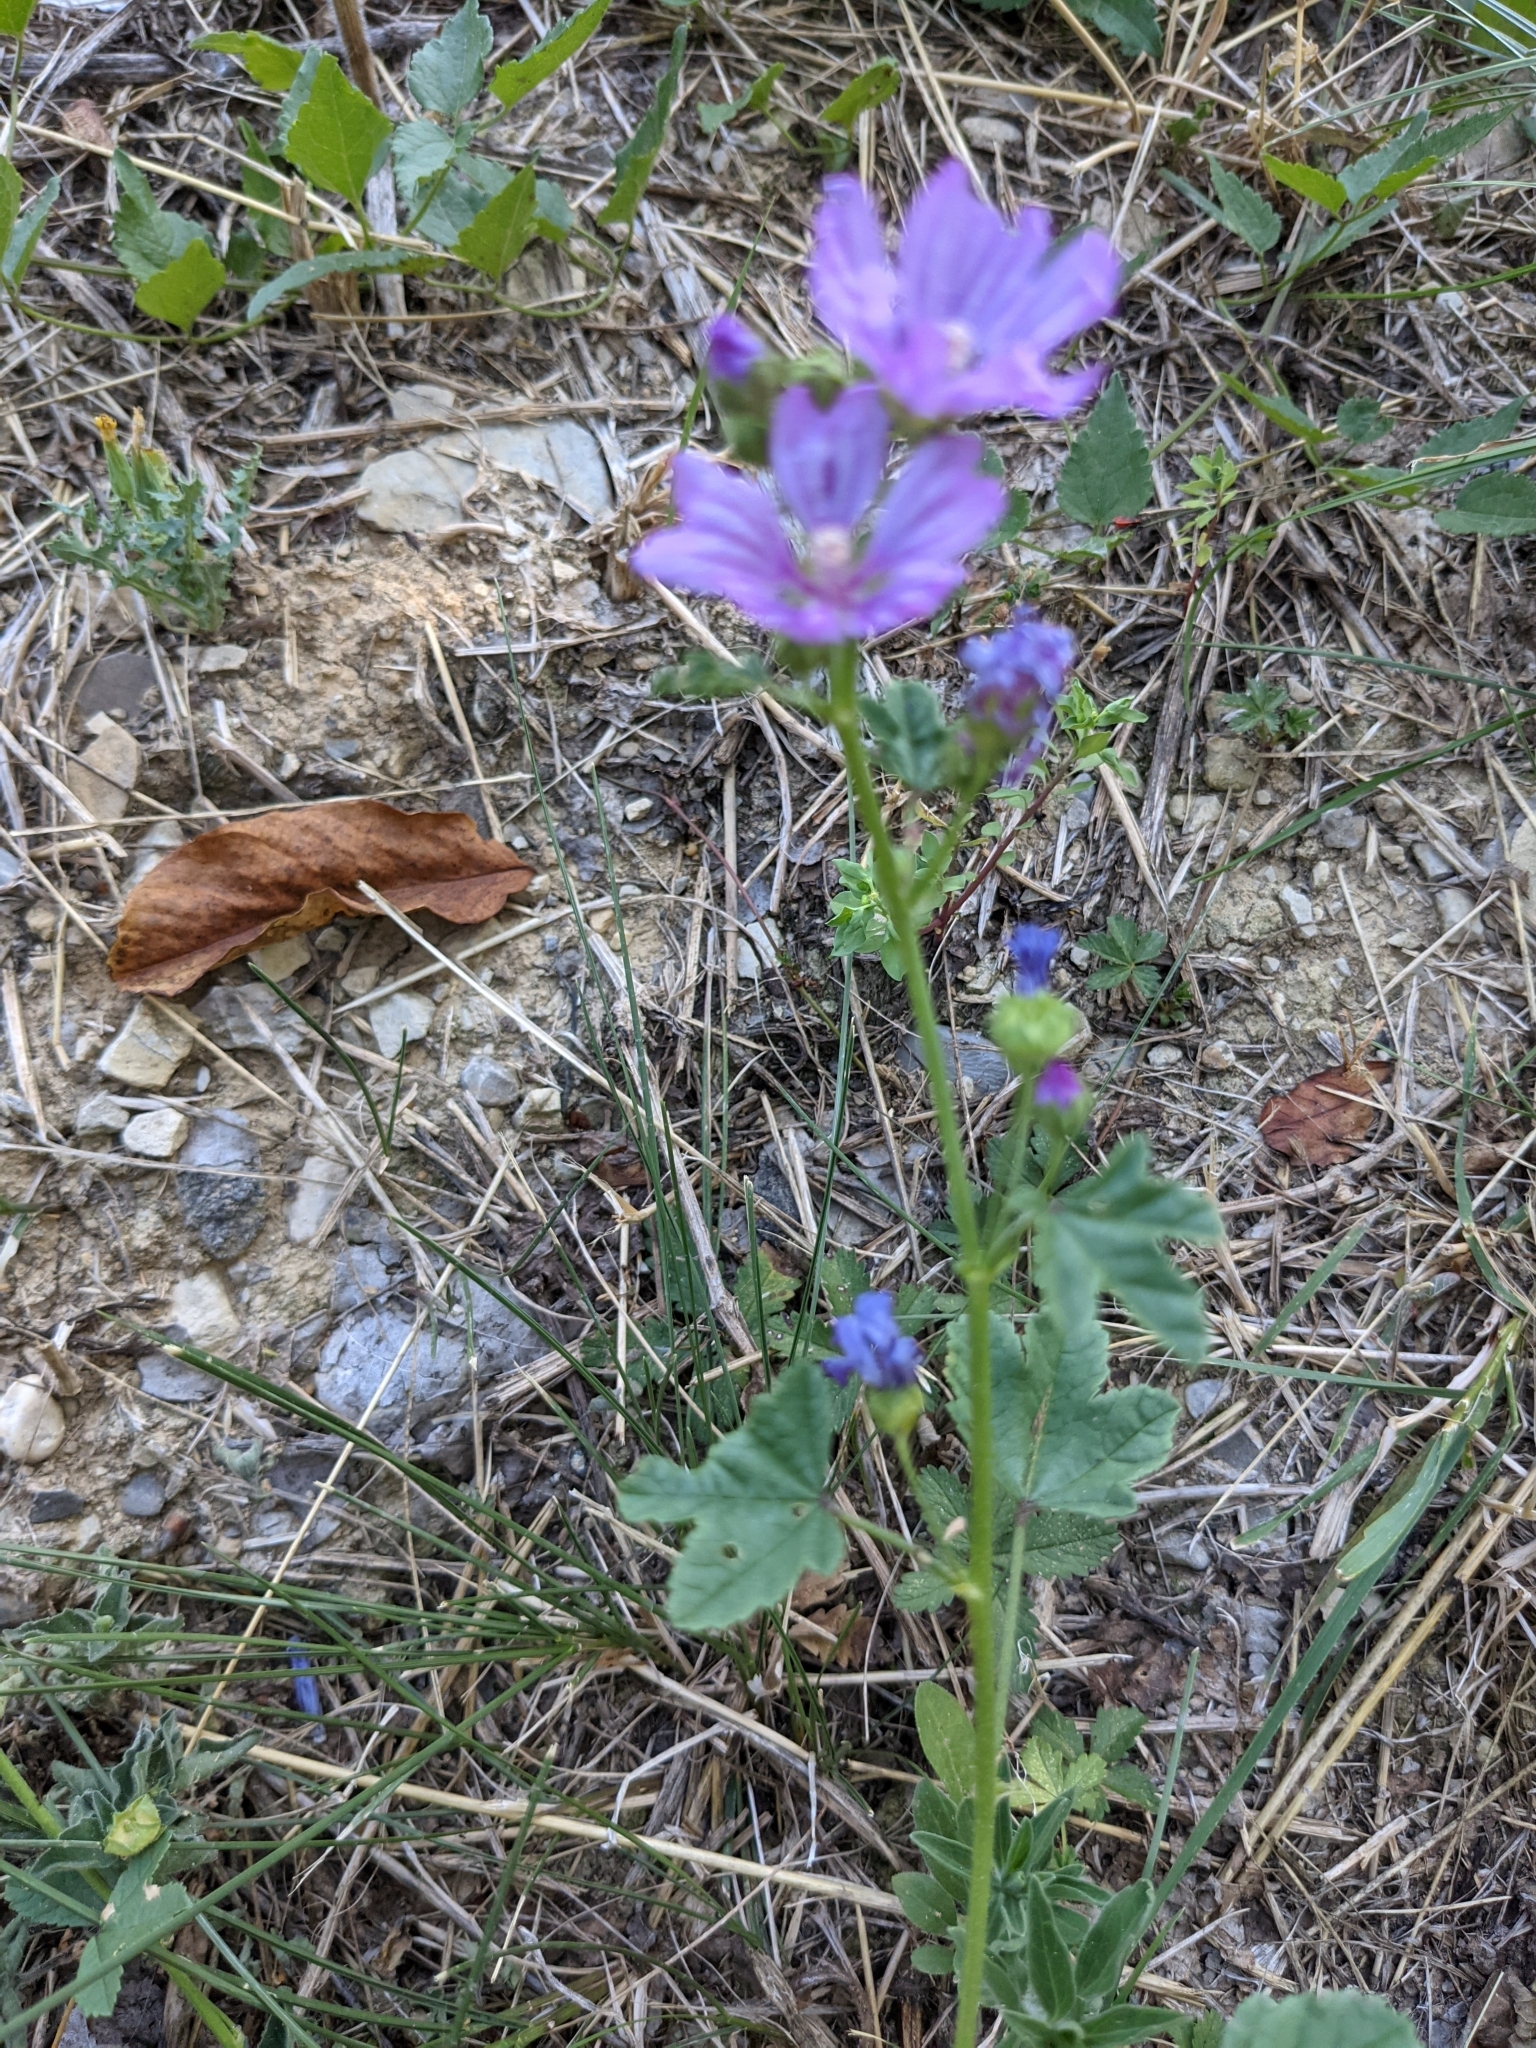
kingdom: Plantae
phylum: Tracheophyta
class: Magnoliopsida
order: Malvales
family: Malvaceae
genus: Malva
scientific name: Malva sylvestris
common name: Common mallow
